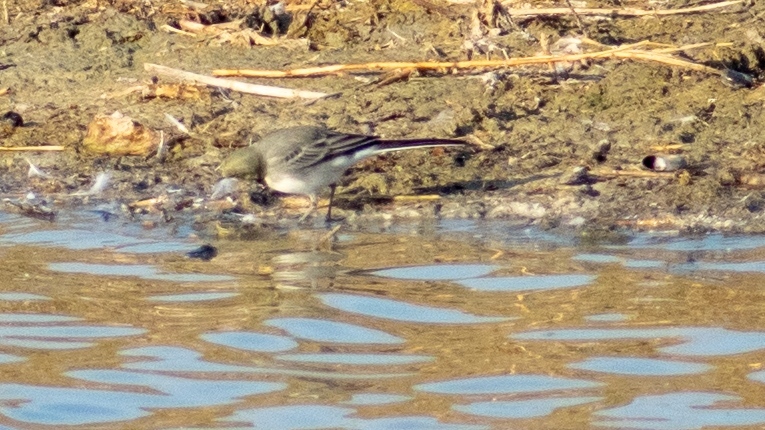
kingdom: Animalia
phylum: Chordata
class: Aves
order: Passeriformes
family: Motacillidae
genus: Motacilla
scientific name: Motacilla alba
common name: White wagtail
